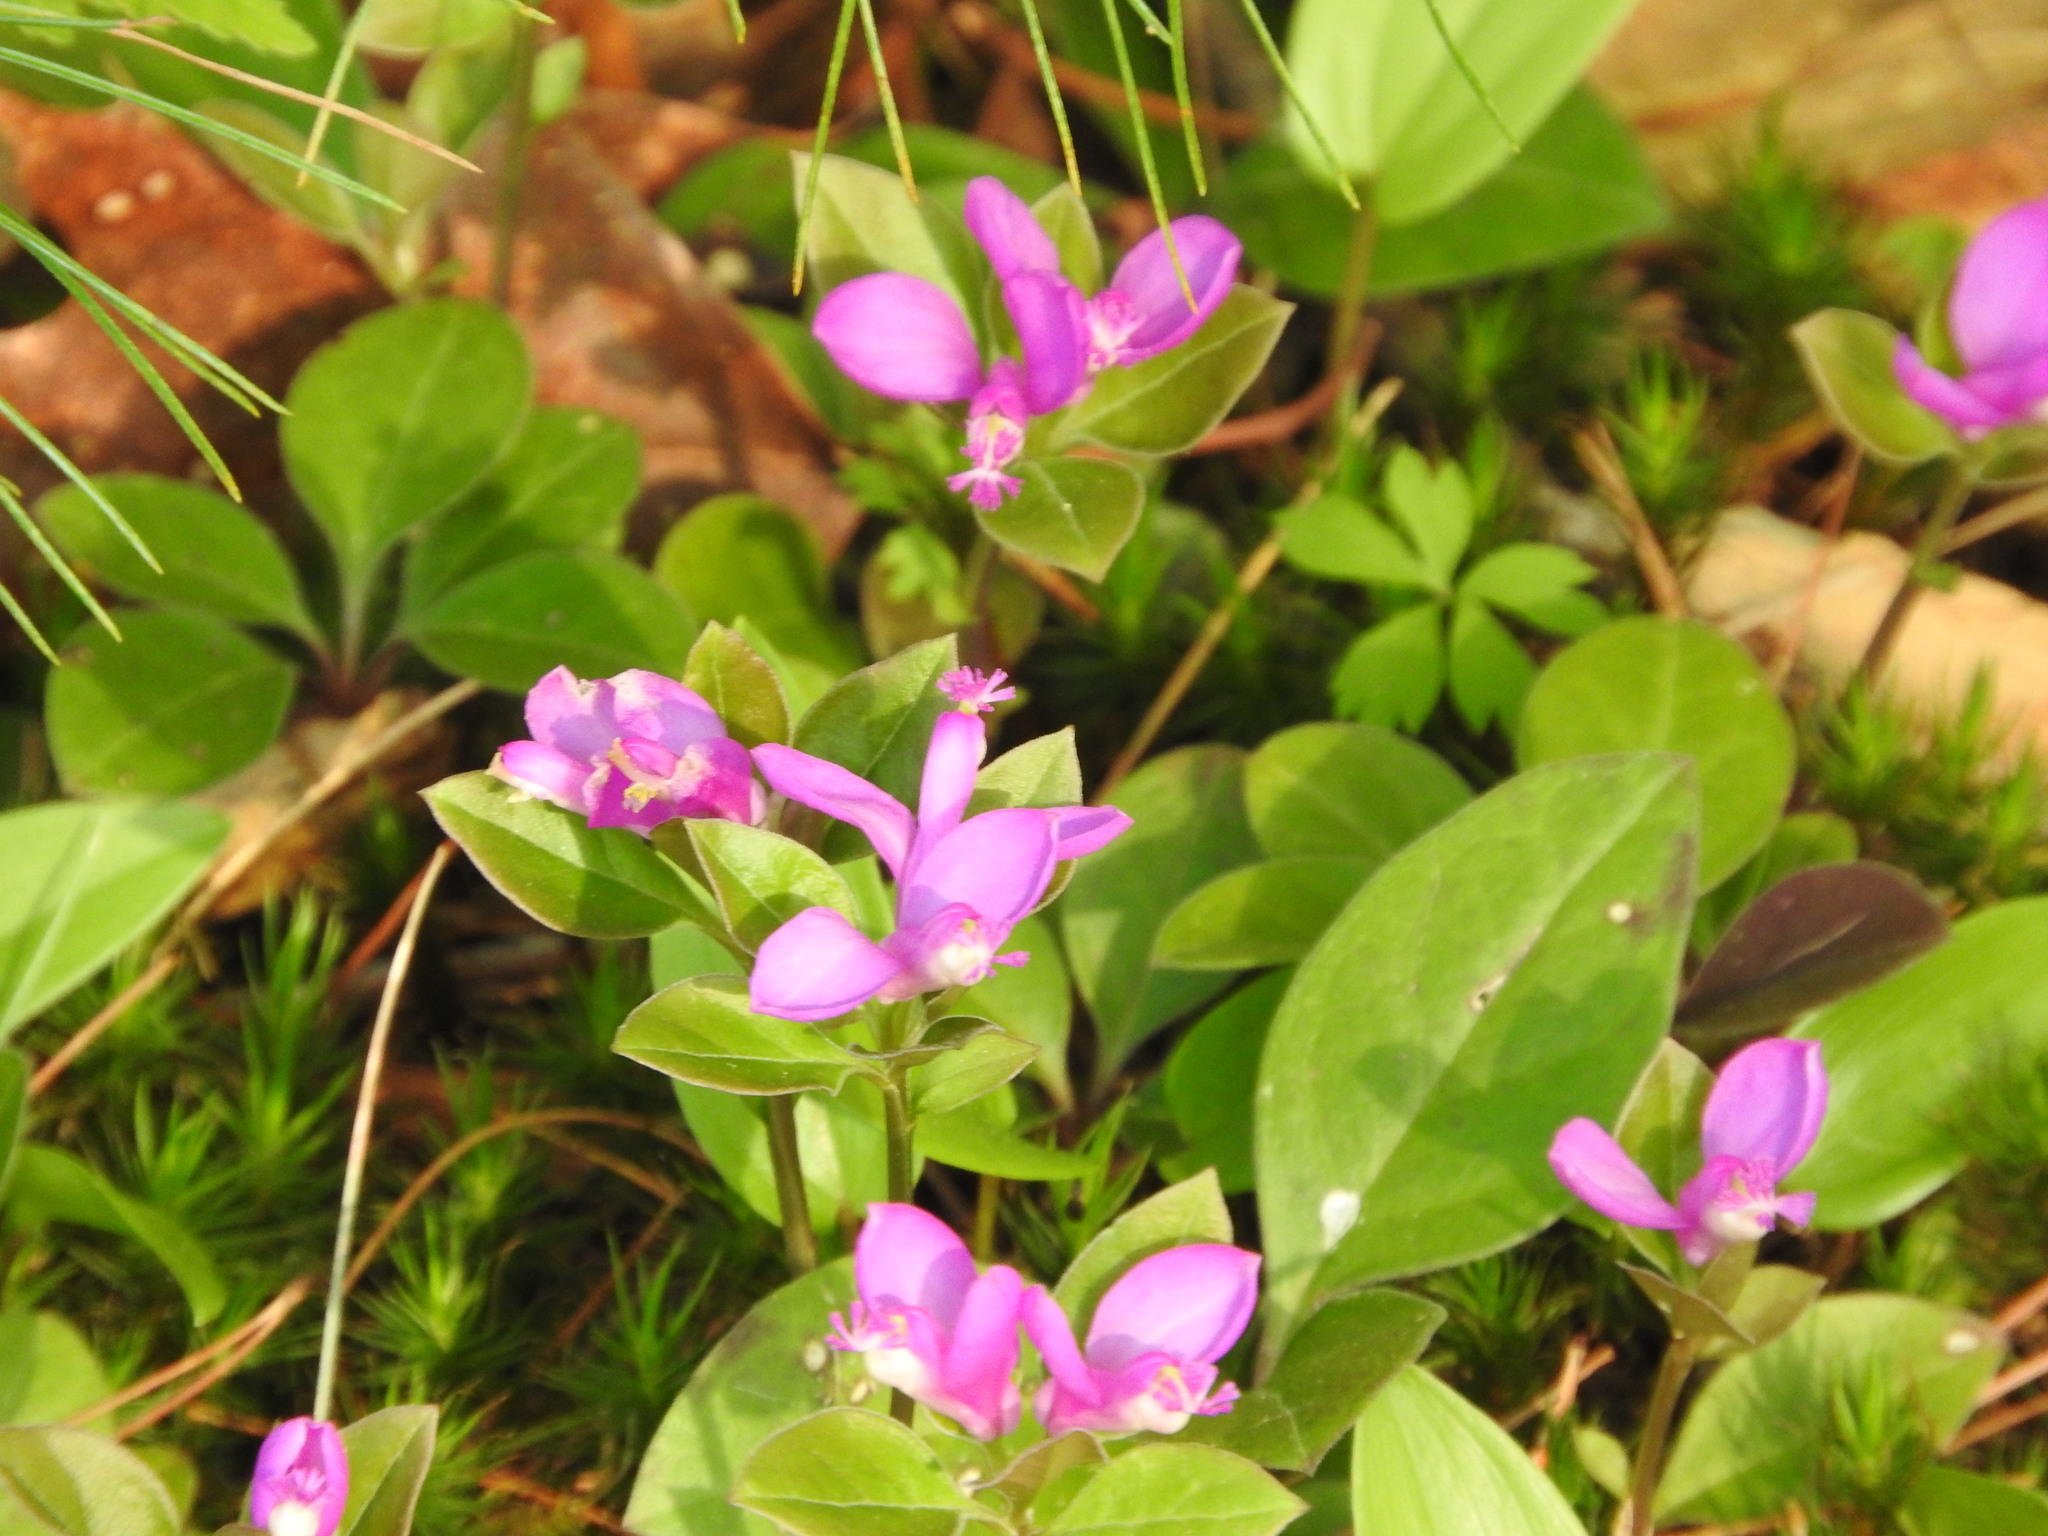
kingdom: Plantae
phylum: Tracheophyta
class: Magnoliopsida
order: Fabales
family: Polygalaceae
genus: Polygaloides
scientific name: Polygaloides paucifolia
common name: Bird-on-the-wing
